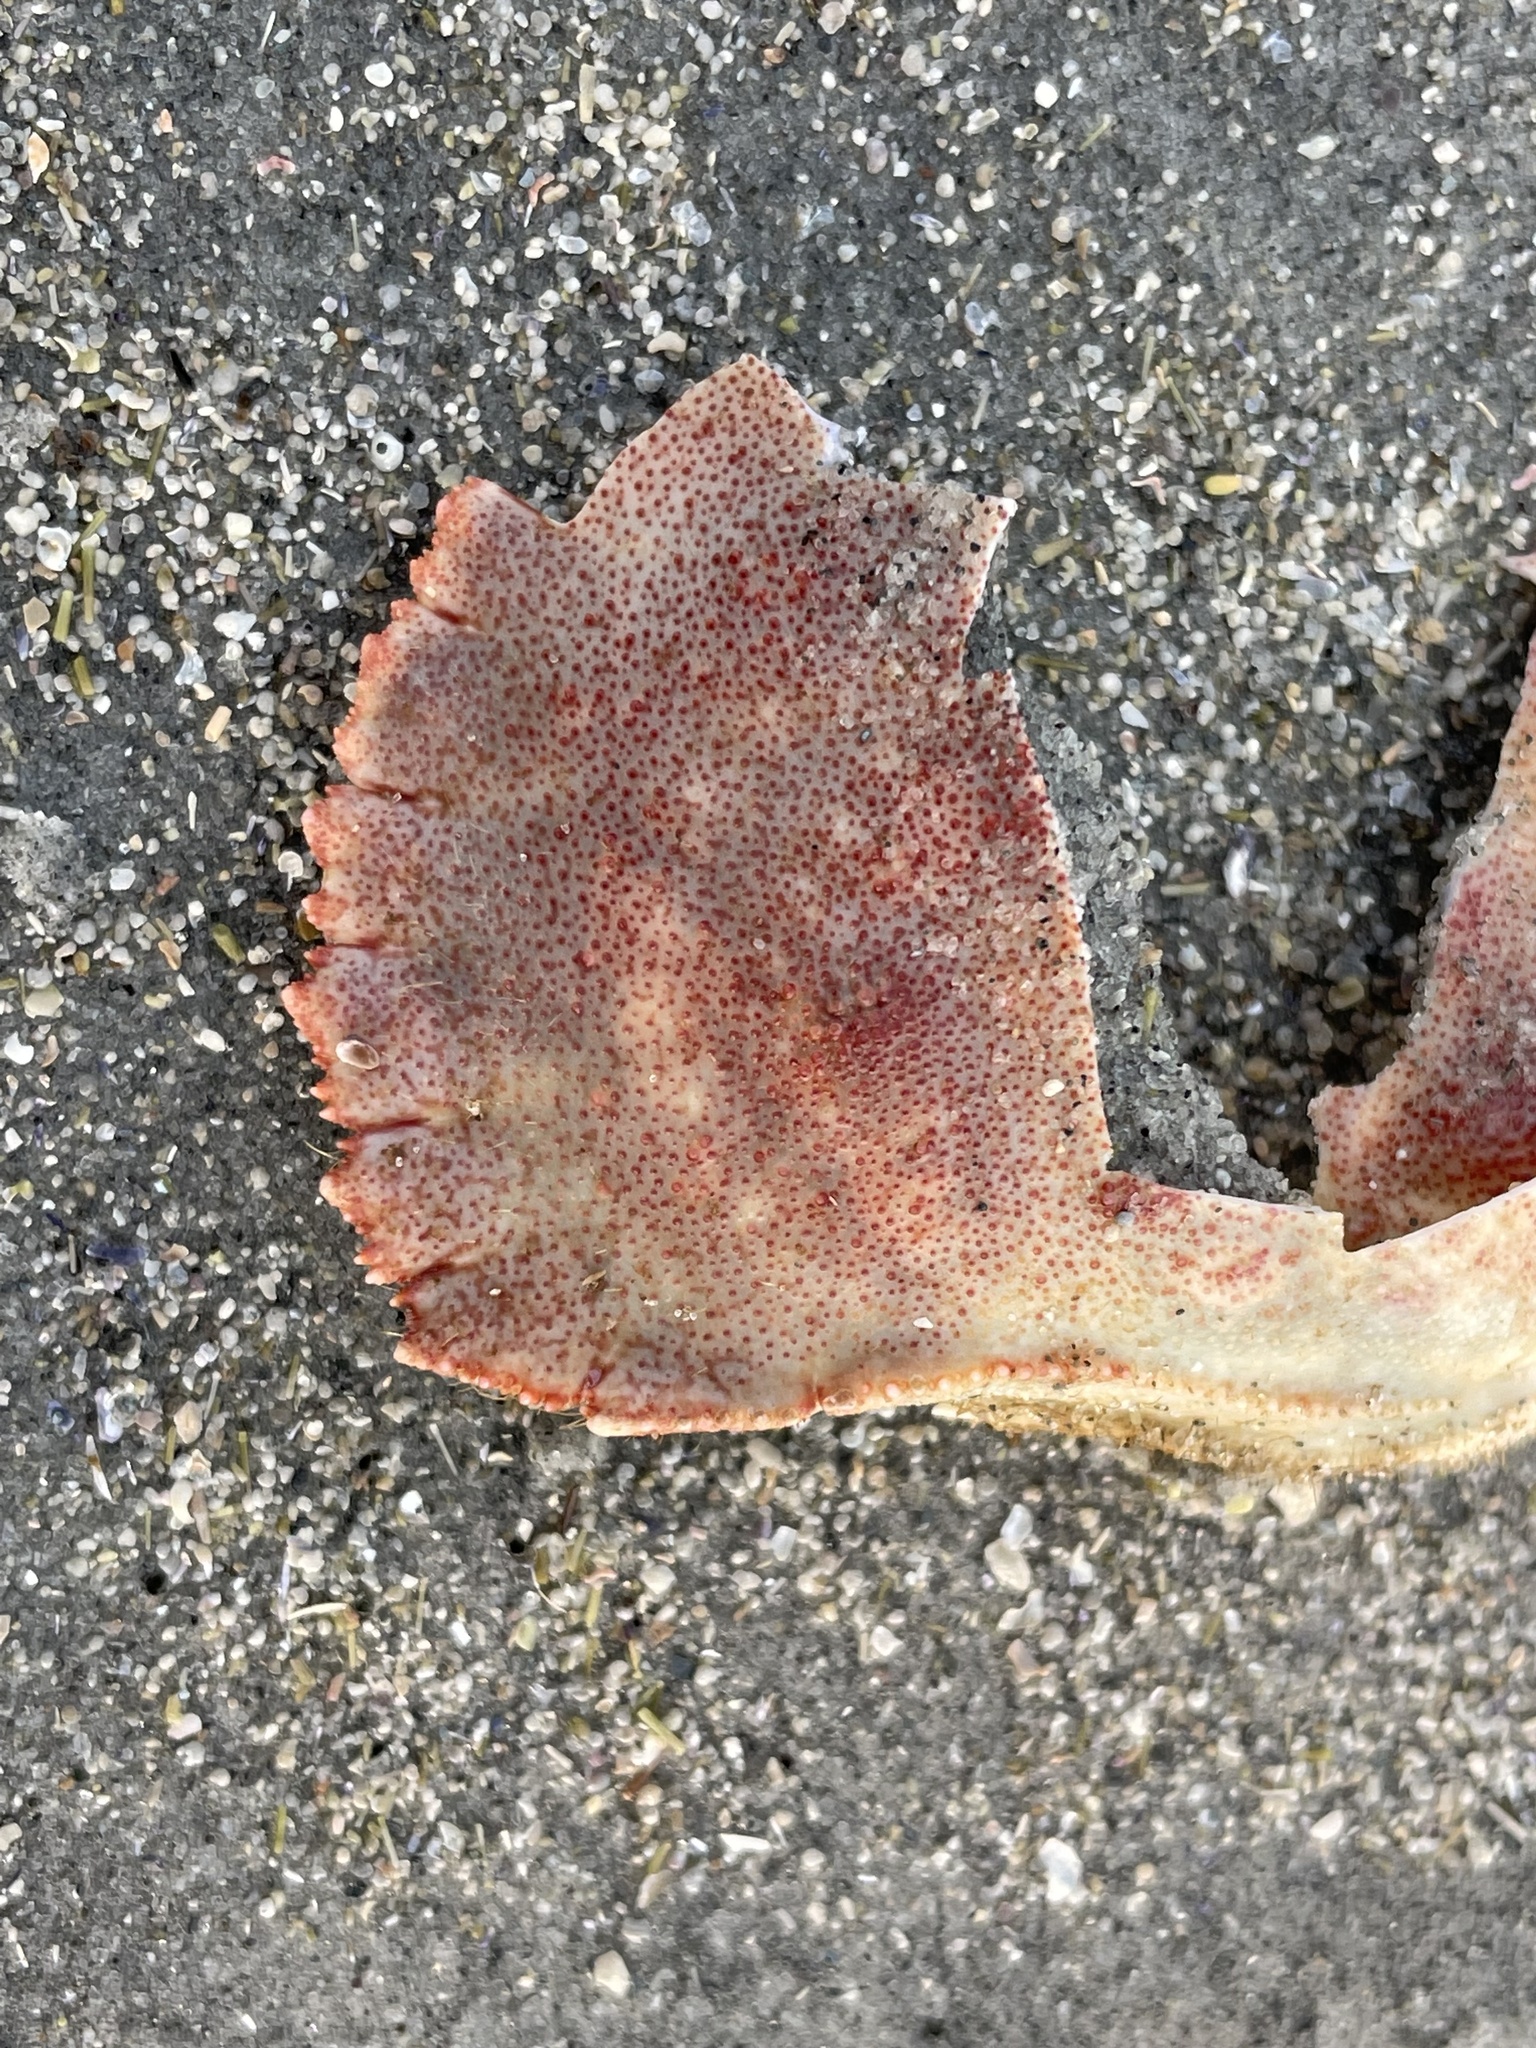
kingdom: Animalia
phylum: Arthropoda
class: Malacostraca
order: Decapoda
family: Cancridae
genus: Cancer
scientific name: Cancer borealis
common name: Jonah crab
